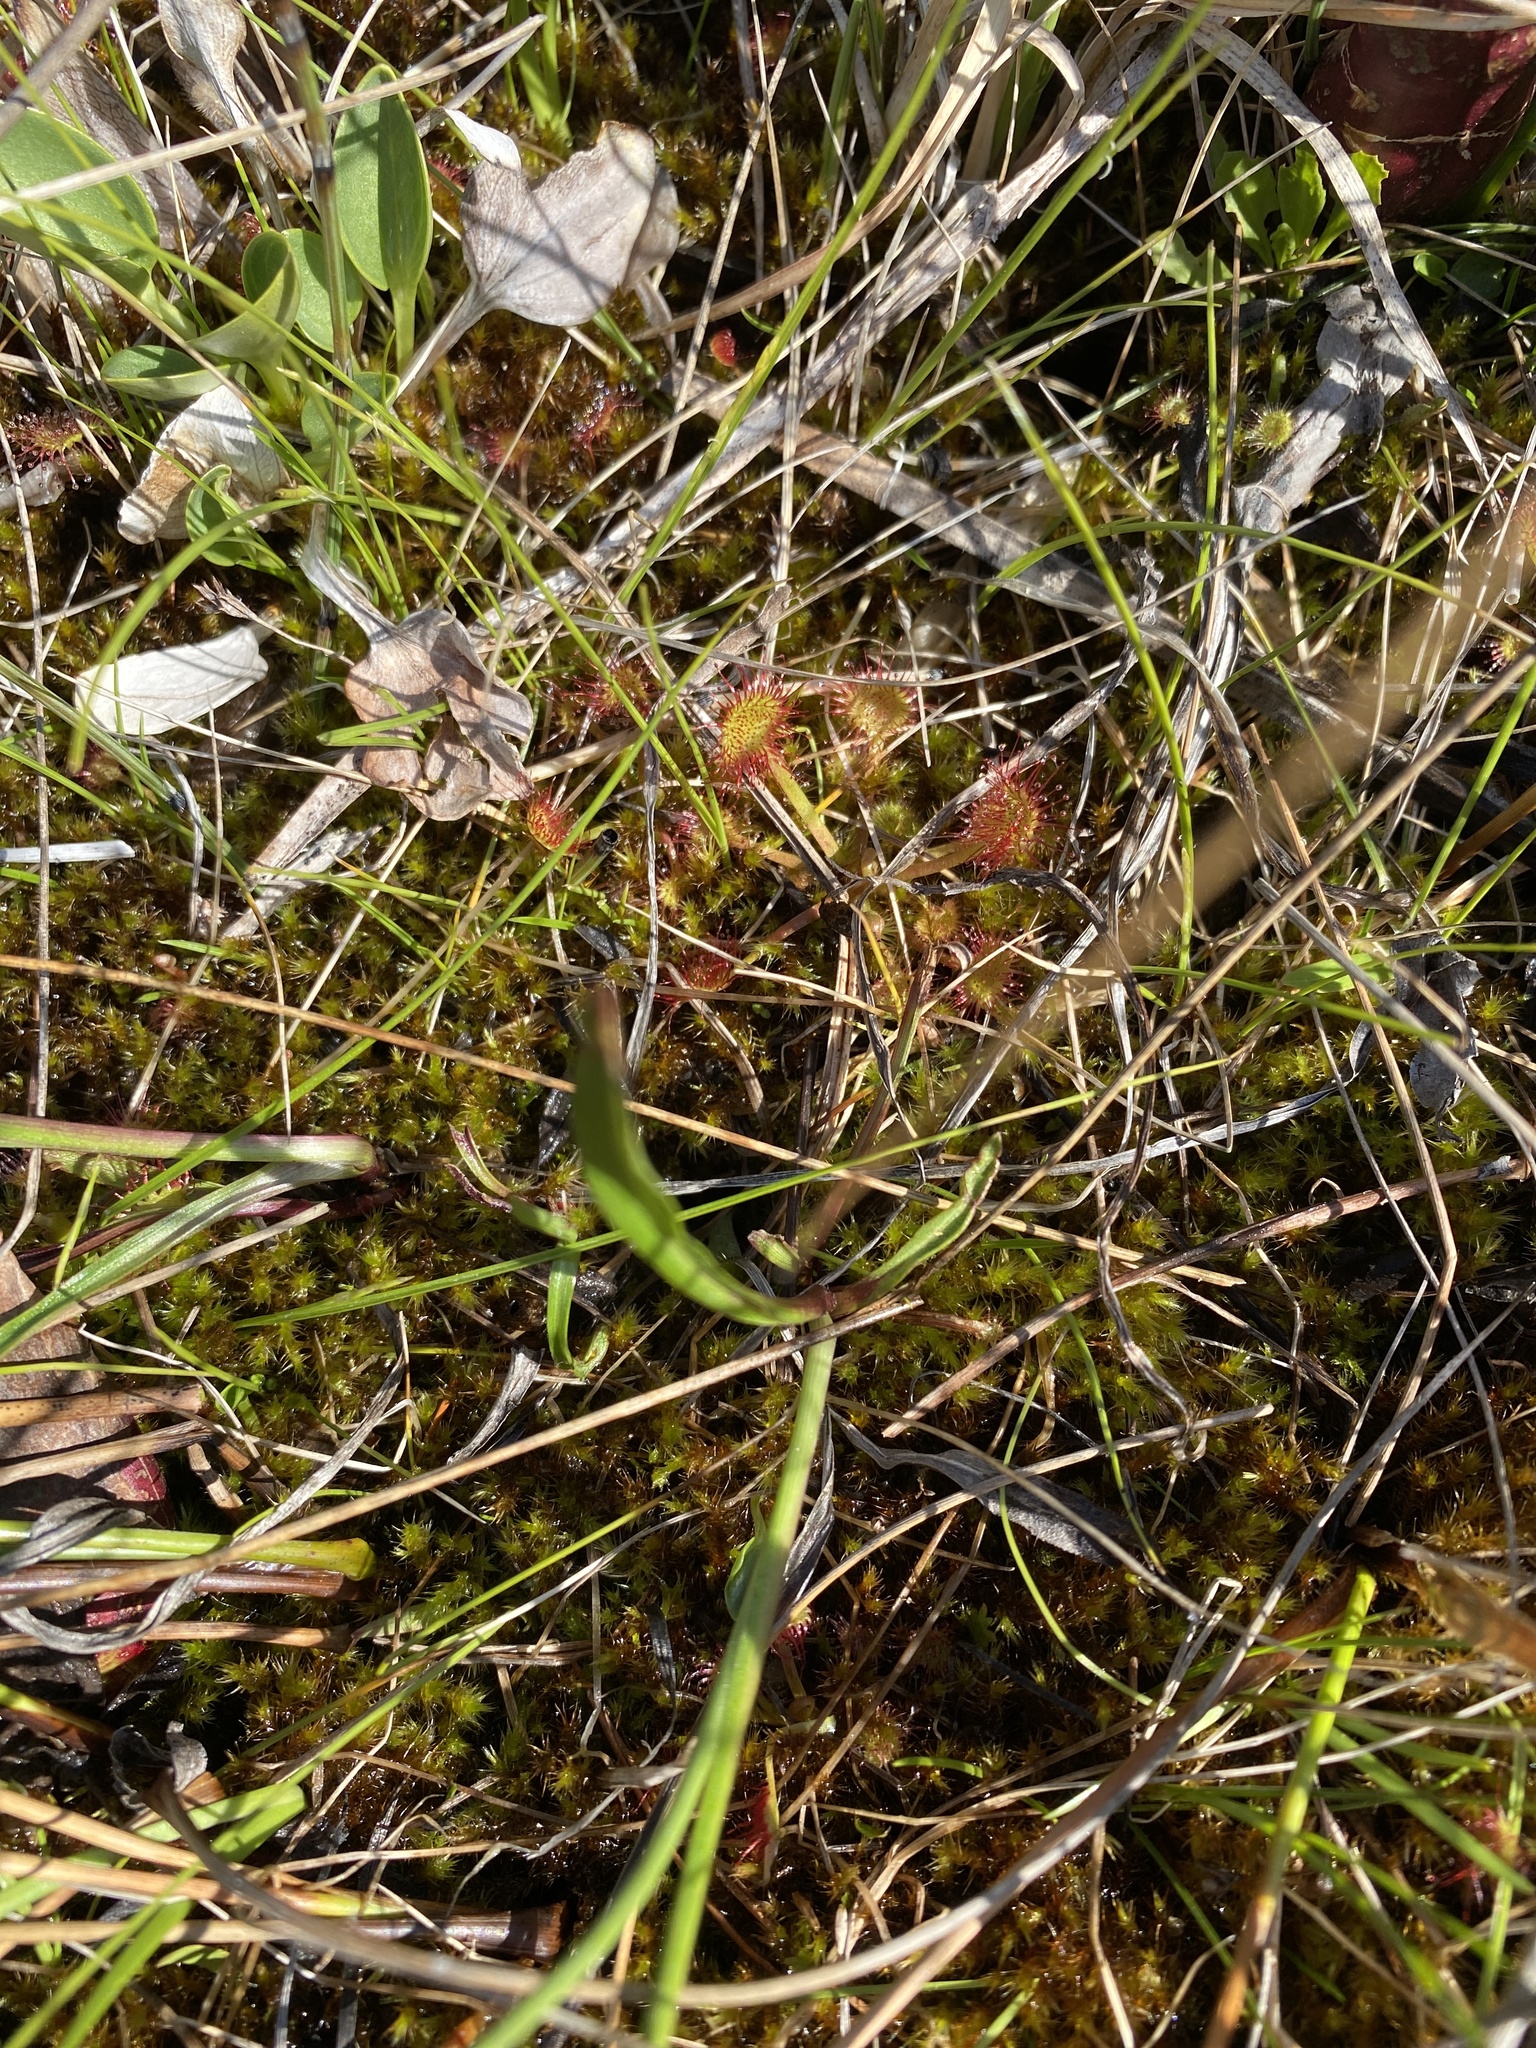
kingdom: Plantae
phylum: Tracheophyta
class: Magnoliopsida
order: Caryophyllales
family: Droseraceae
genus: Drosera
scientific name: Drosera rotundifolia
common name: Round-leaved sundew
